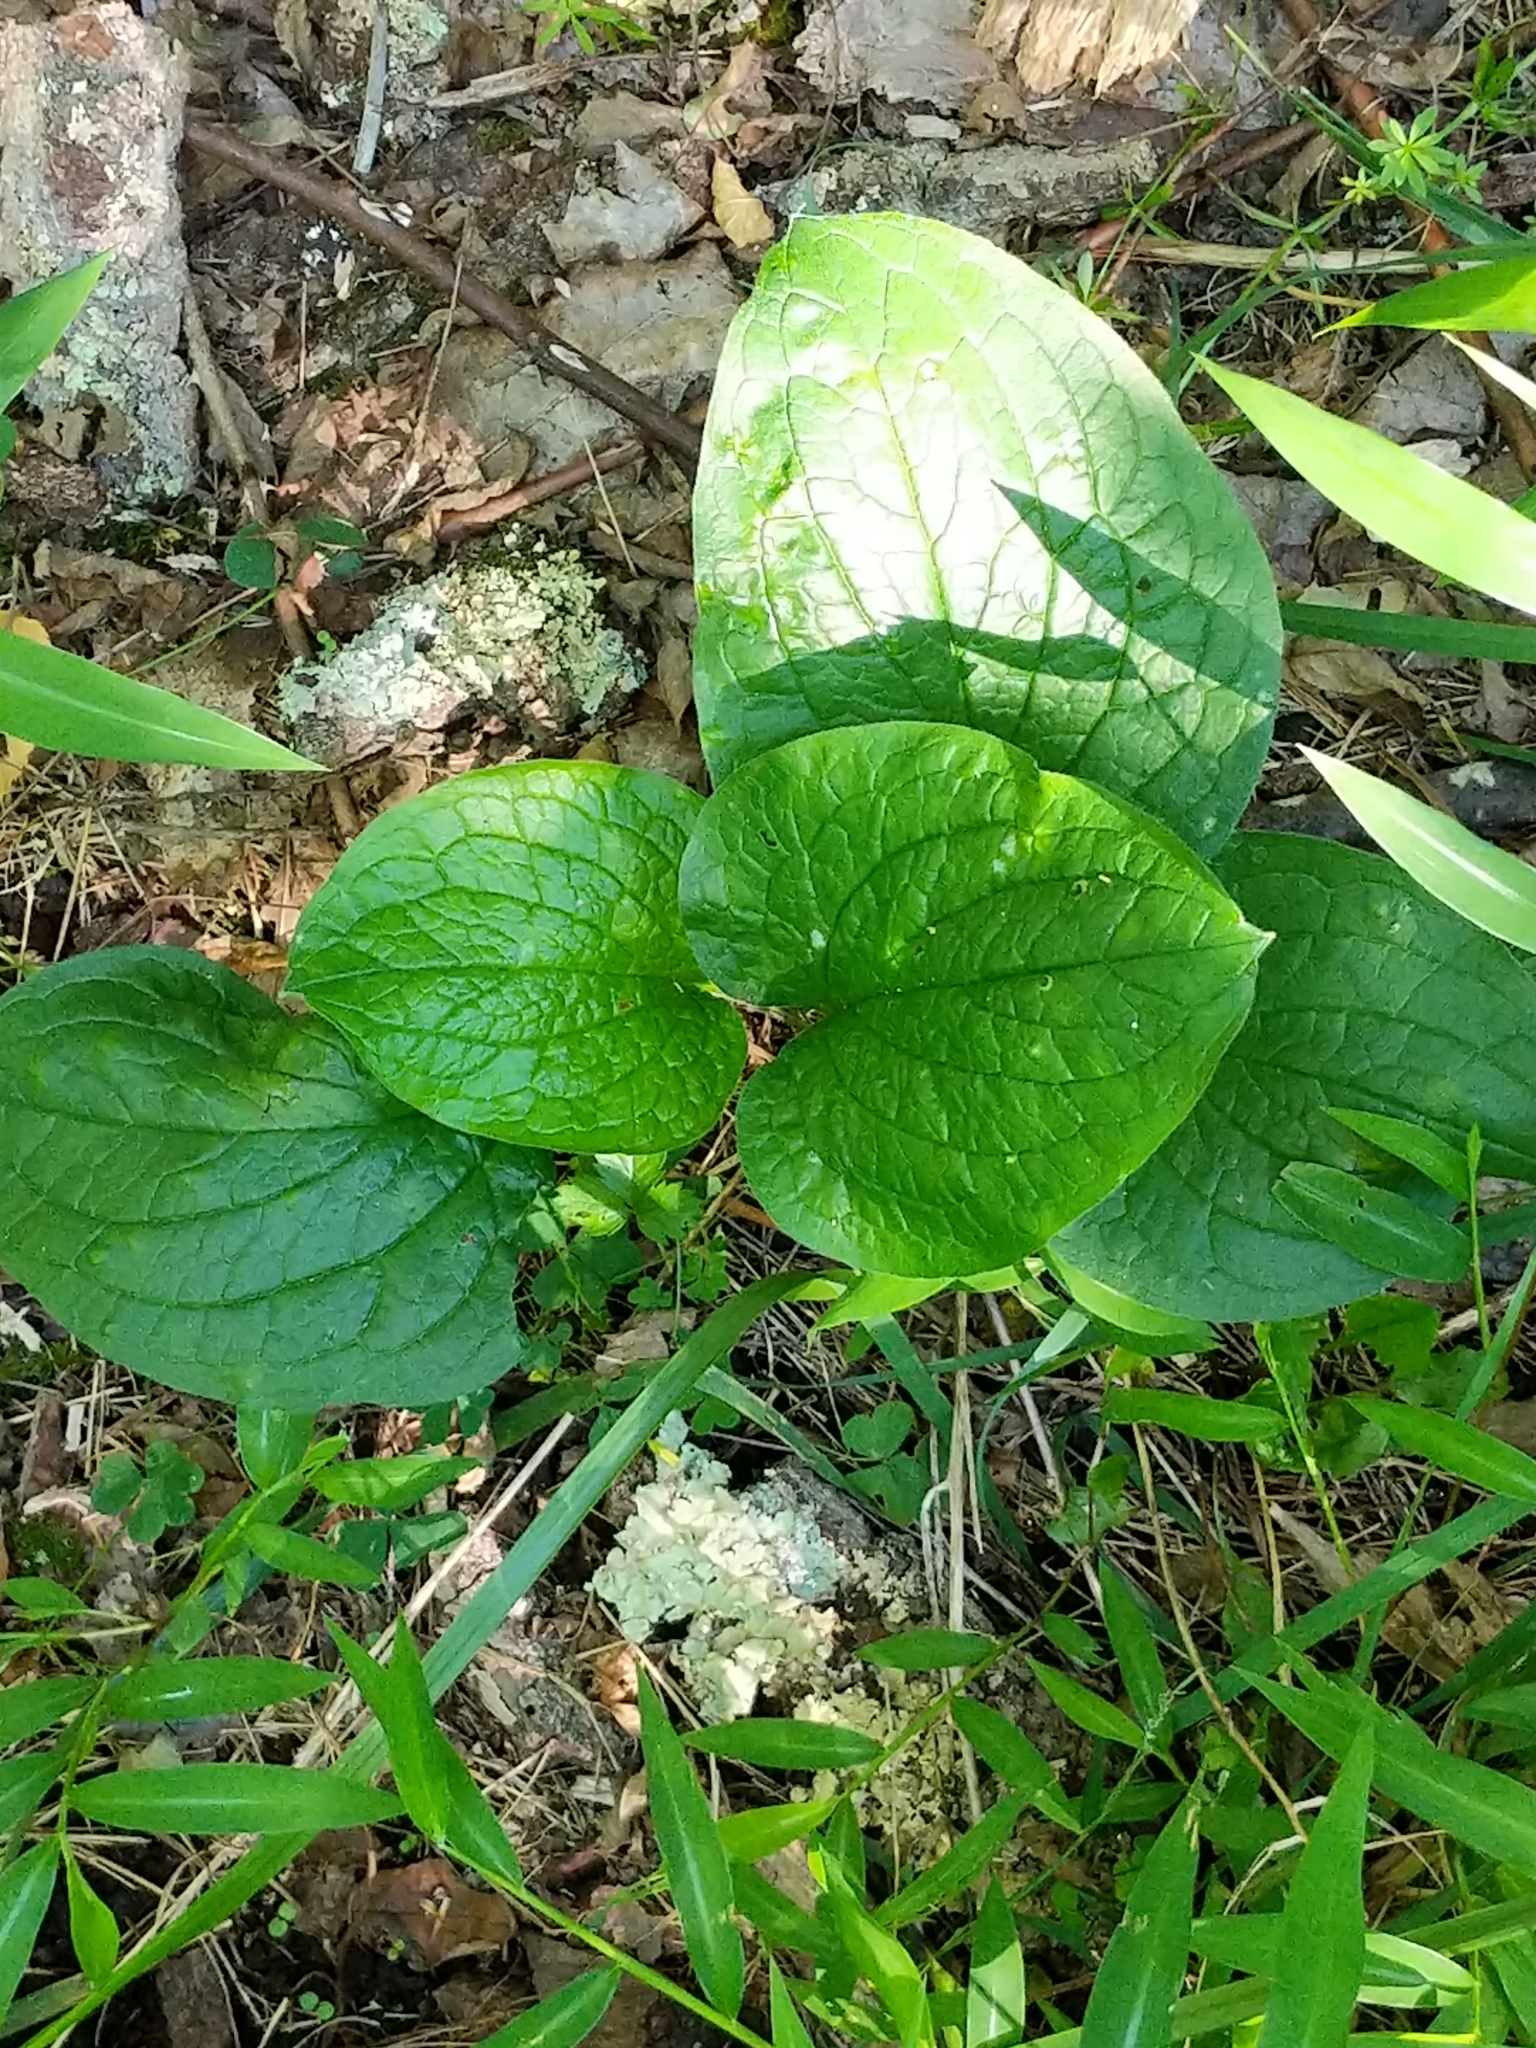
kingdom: Plantae
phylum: Tracheophyta
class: Magnoliopsida
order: Boraginales
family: Boraginaceae
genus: Hackelia
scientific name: Hackelia virginiana
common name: Beggar's-lice
